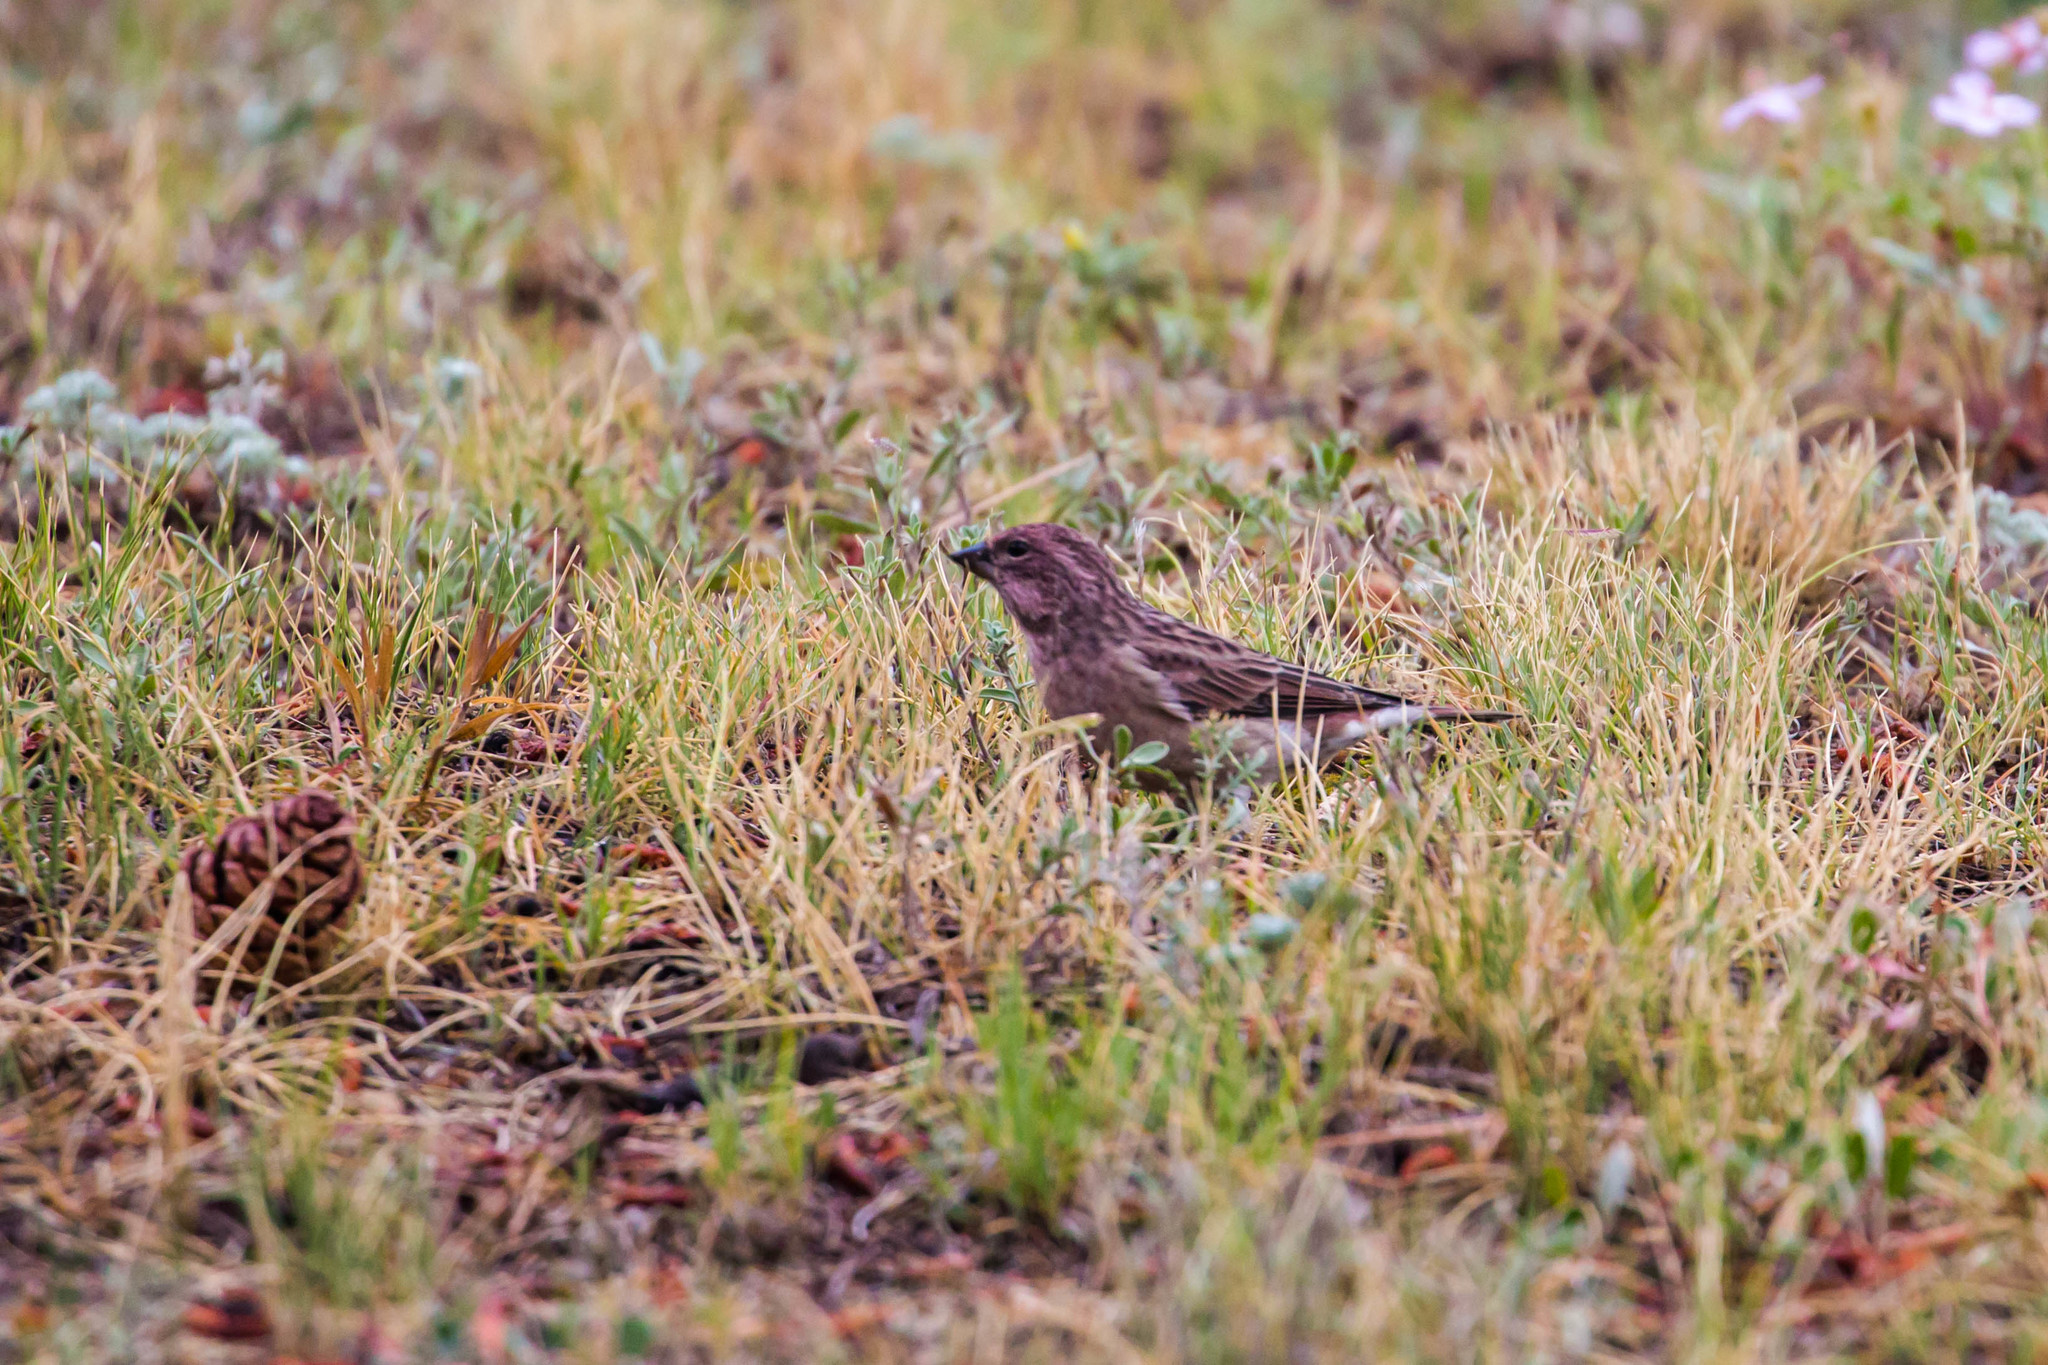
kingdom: Animalia
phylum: Chordata
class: Aves
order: Passeriformes
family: Fringillidae
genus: Haemorhous
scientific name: Haemorhous cassinii
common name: Cassin's finch
